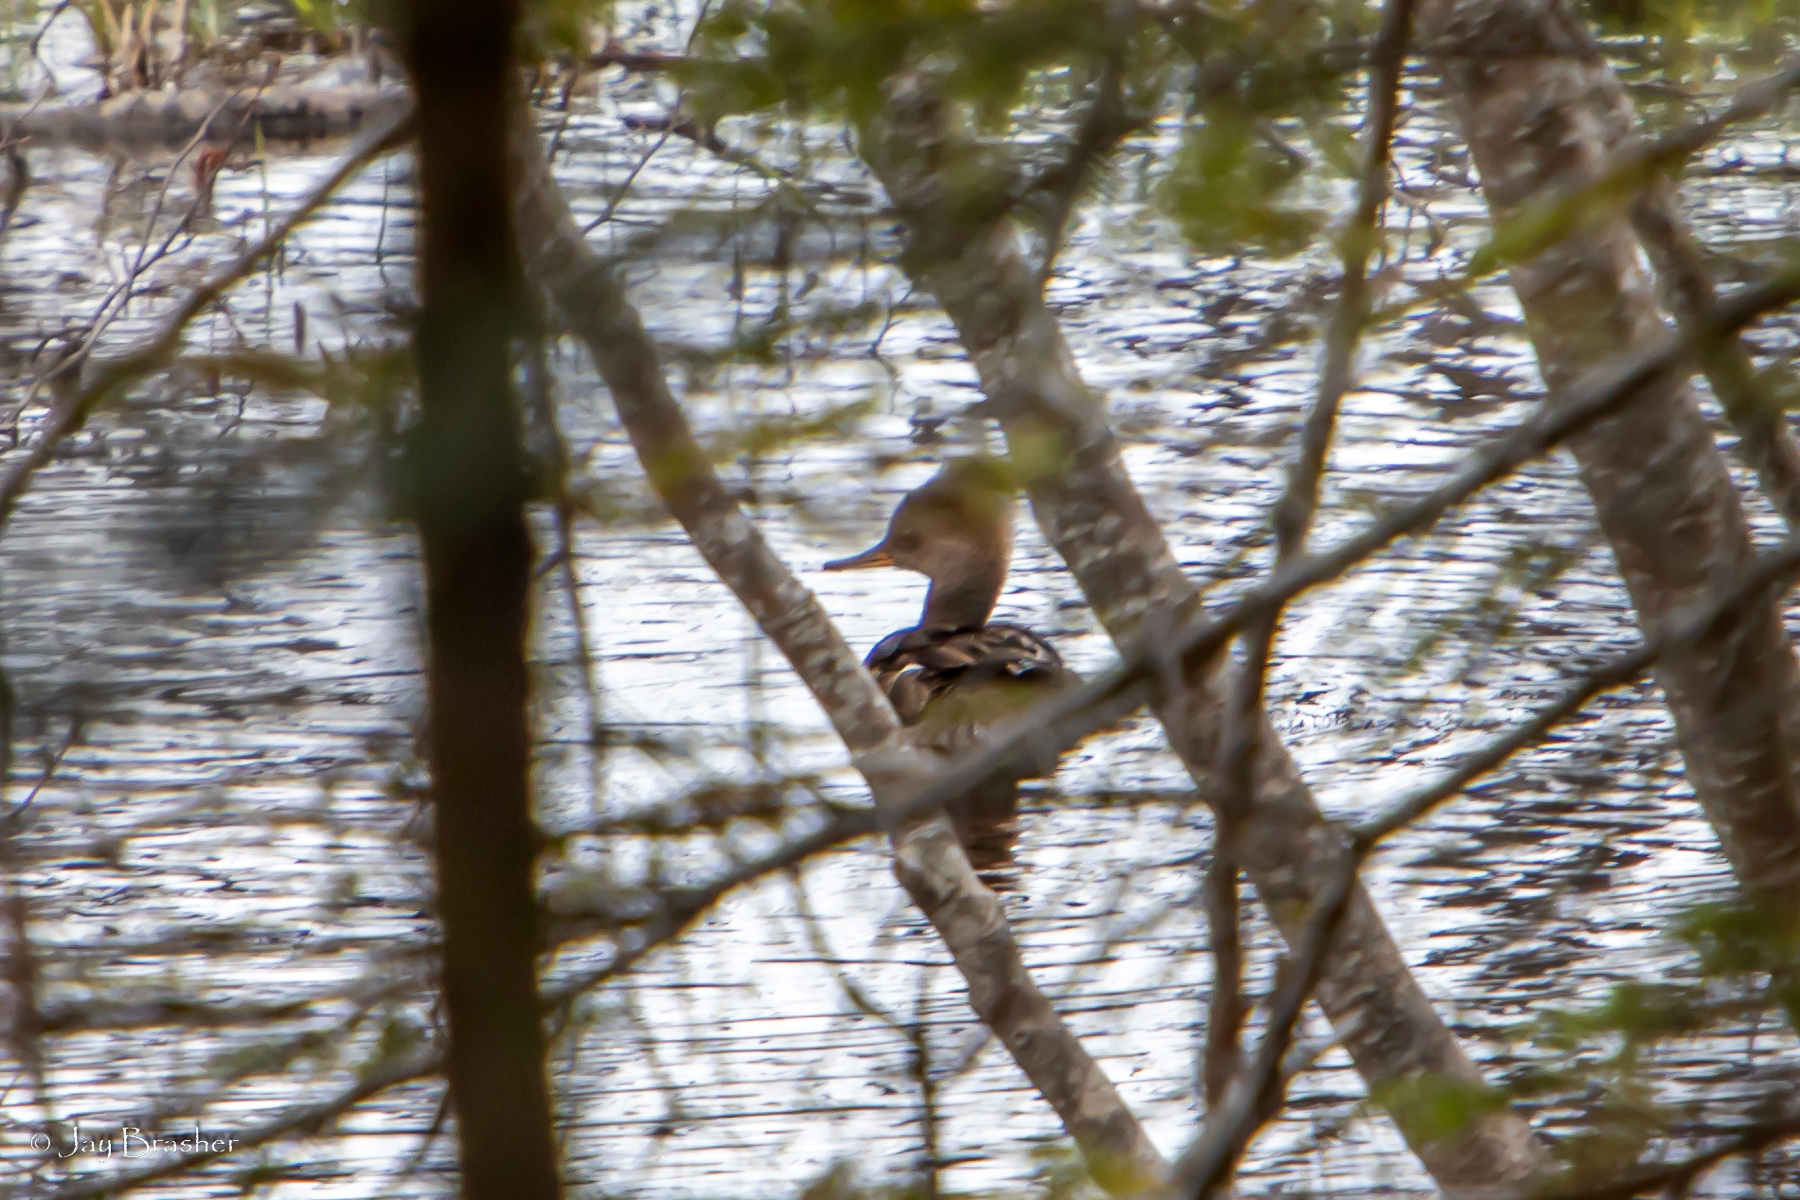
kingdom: Animalia
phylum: Chordata
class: Aves
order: Anseriformes
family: Anatidae
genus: Lophodytes
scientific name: Lophodytes cucullatus
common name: Hooded merganser
